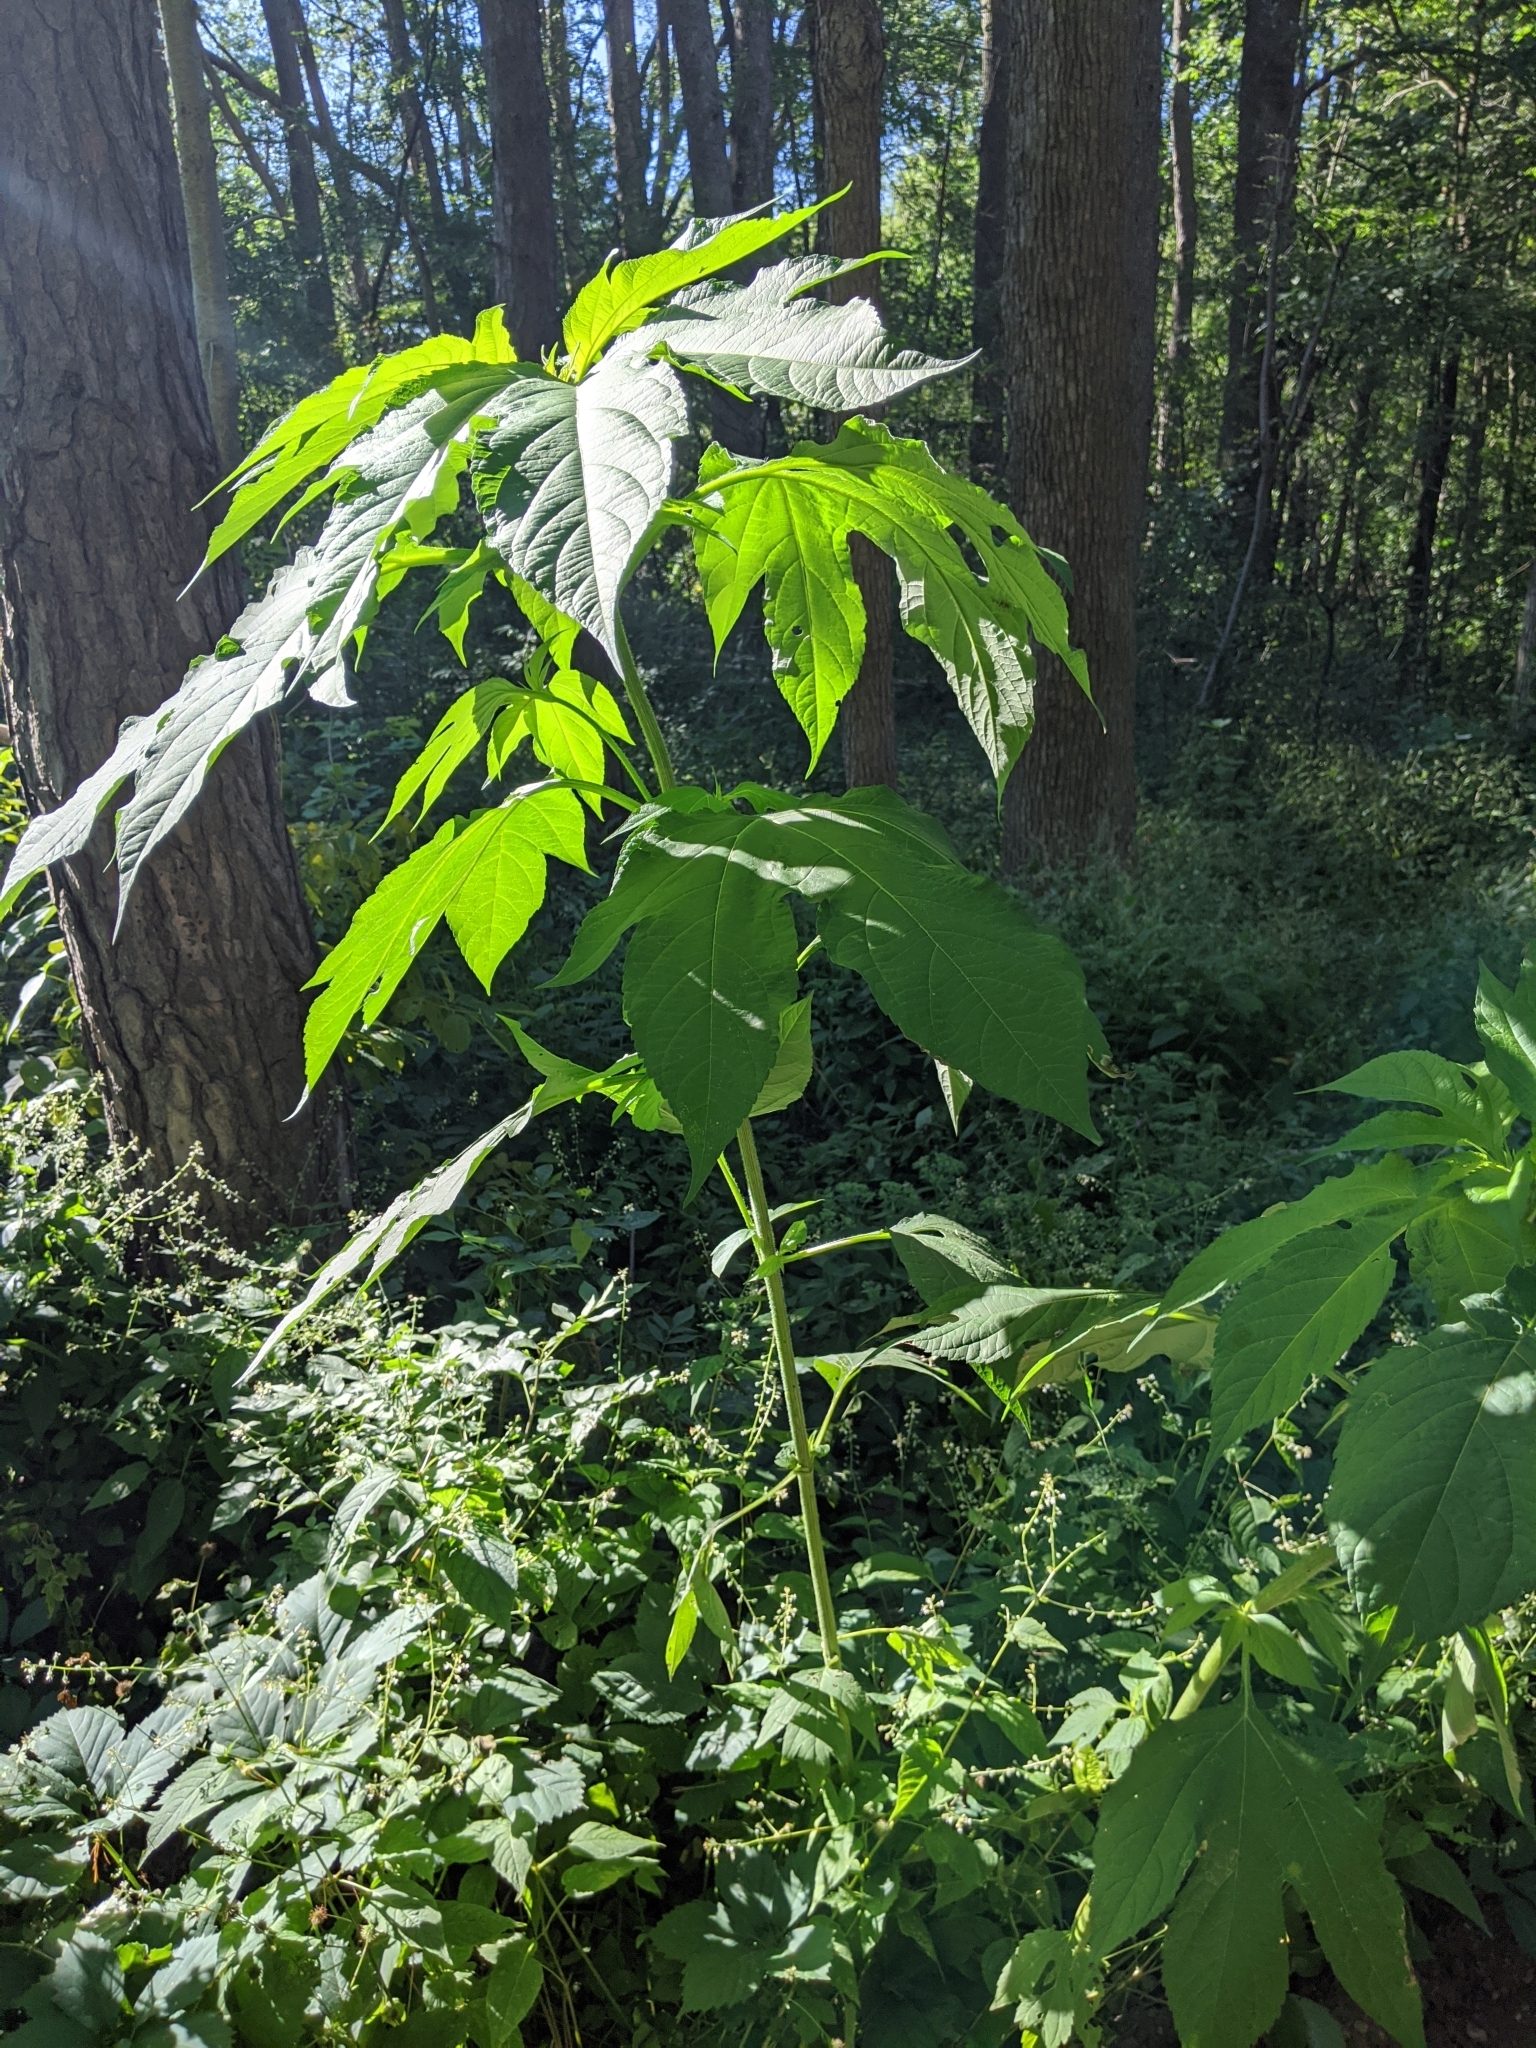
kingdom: Plantae
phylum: Tracheophyta
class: Magnoliopsida
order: Asterales
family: Asteraceae
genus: Ambrosia
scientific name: Ambrosia trifida
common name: Giant ragweed
